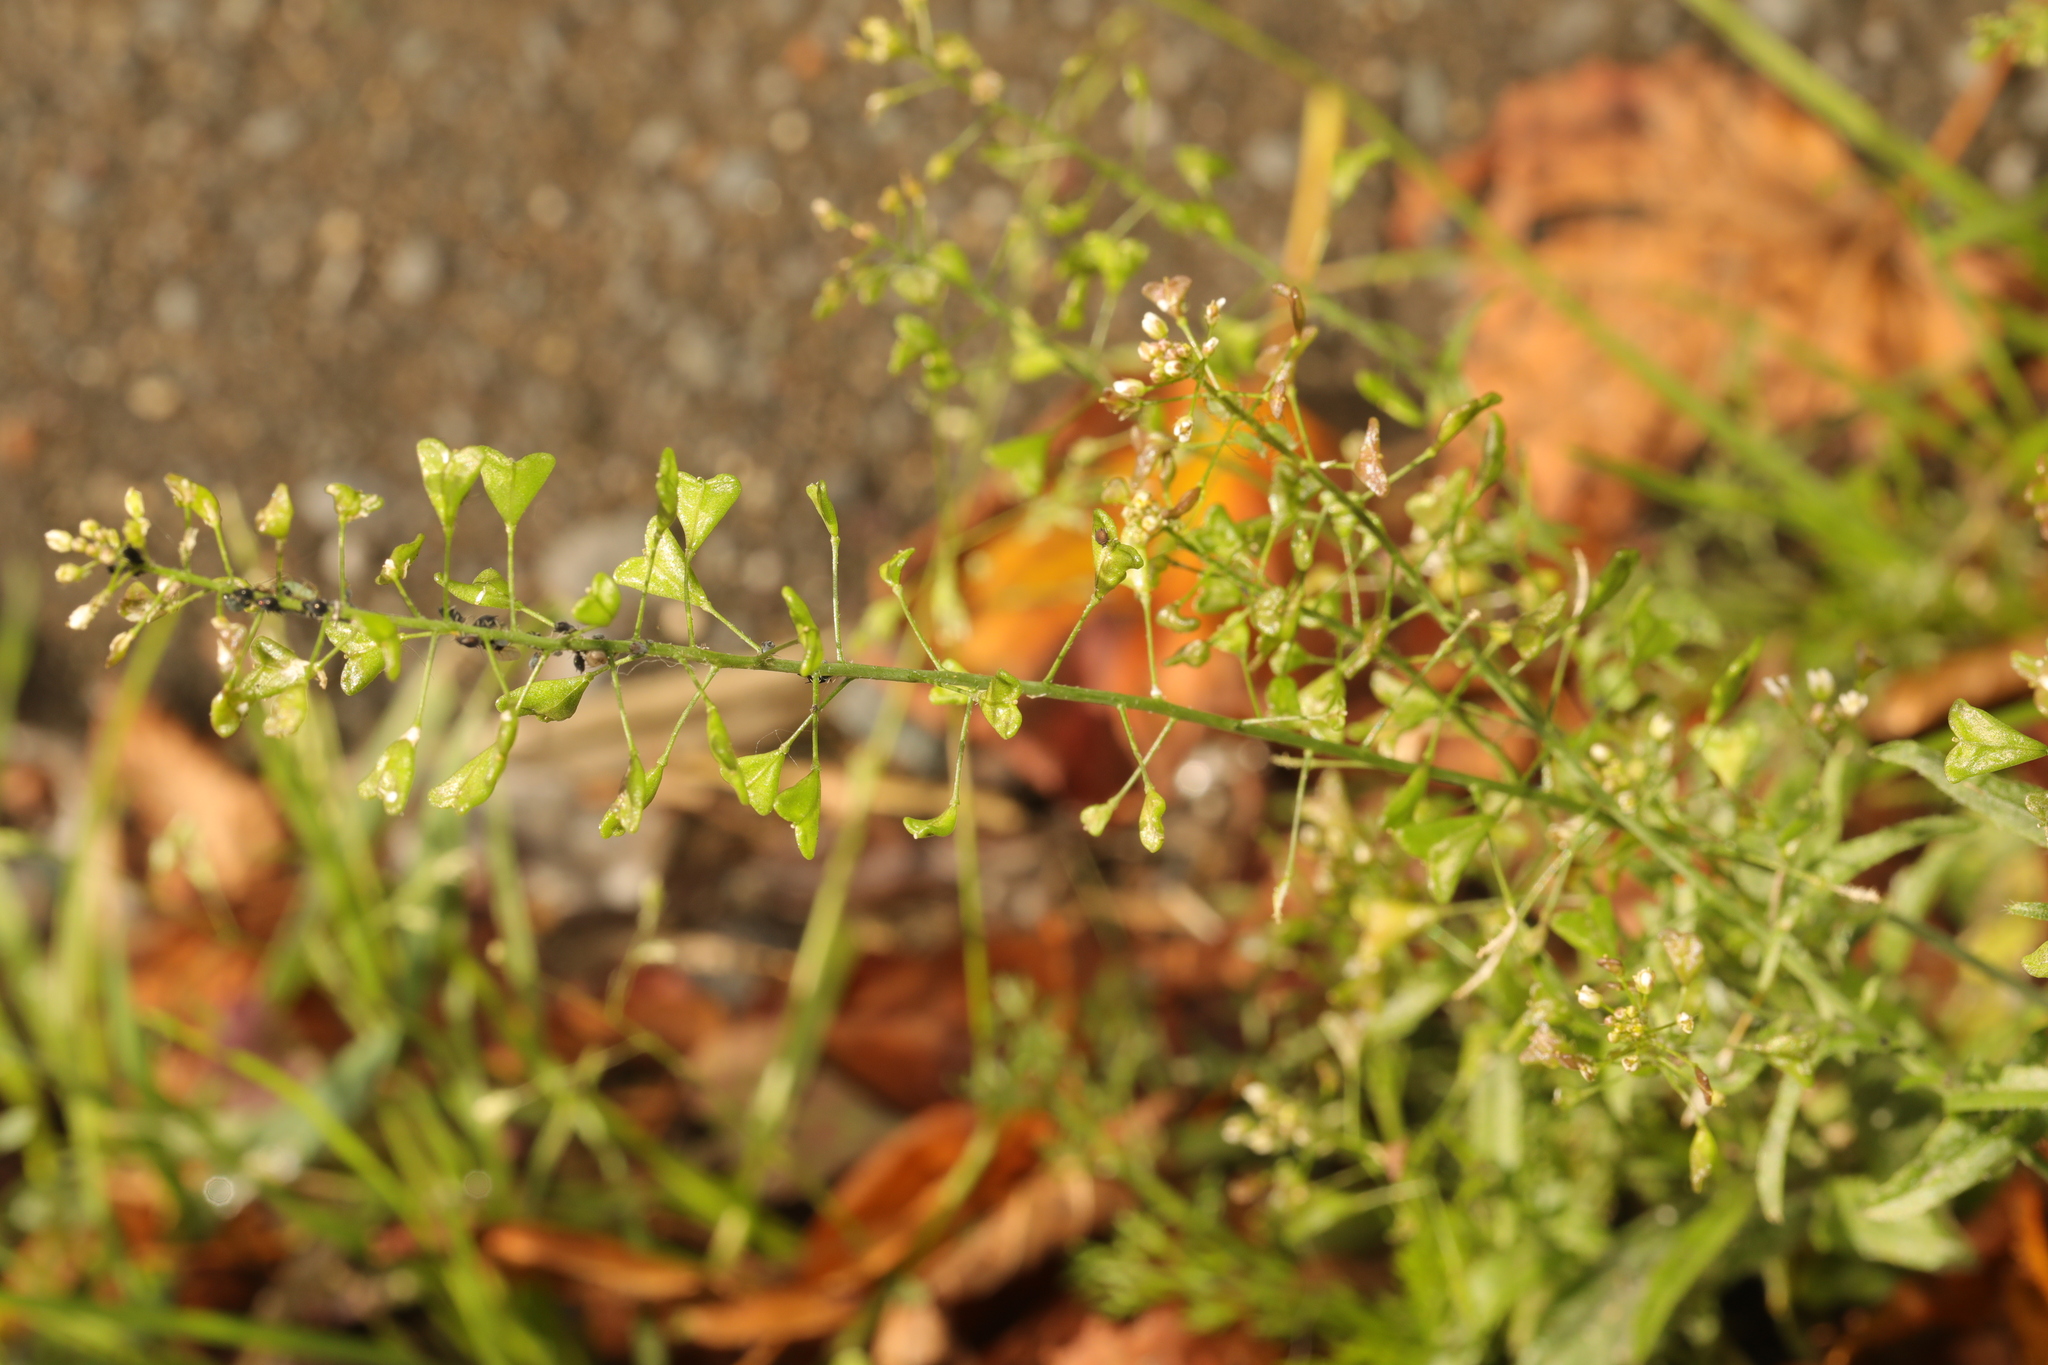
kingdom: Plantae
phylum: Tracheophyta
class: Magnoliopsida
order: Brassicales
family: Brassicaceae
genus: Capsella
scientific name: Capsella bursa-pastoris
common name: Shepherd's purse
